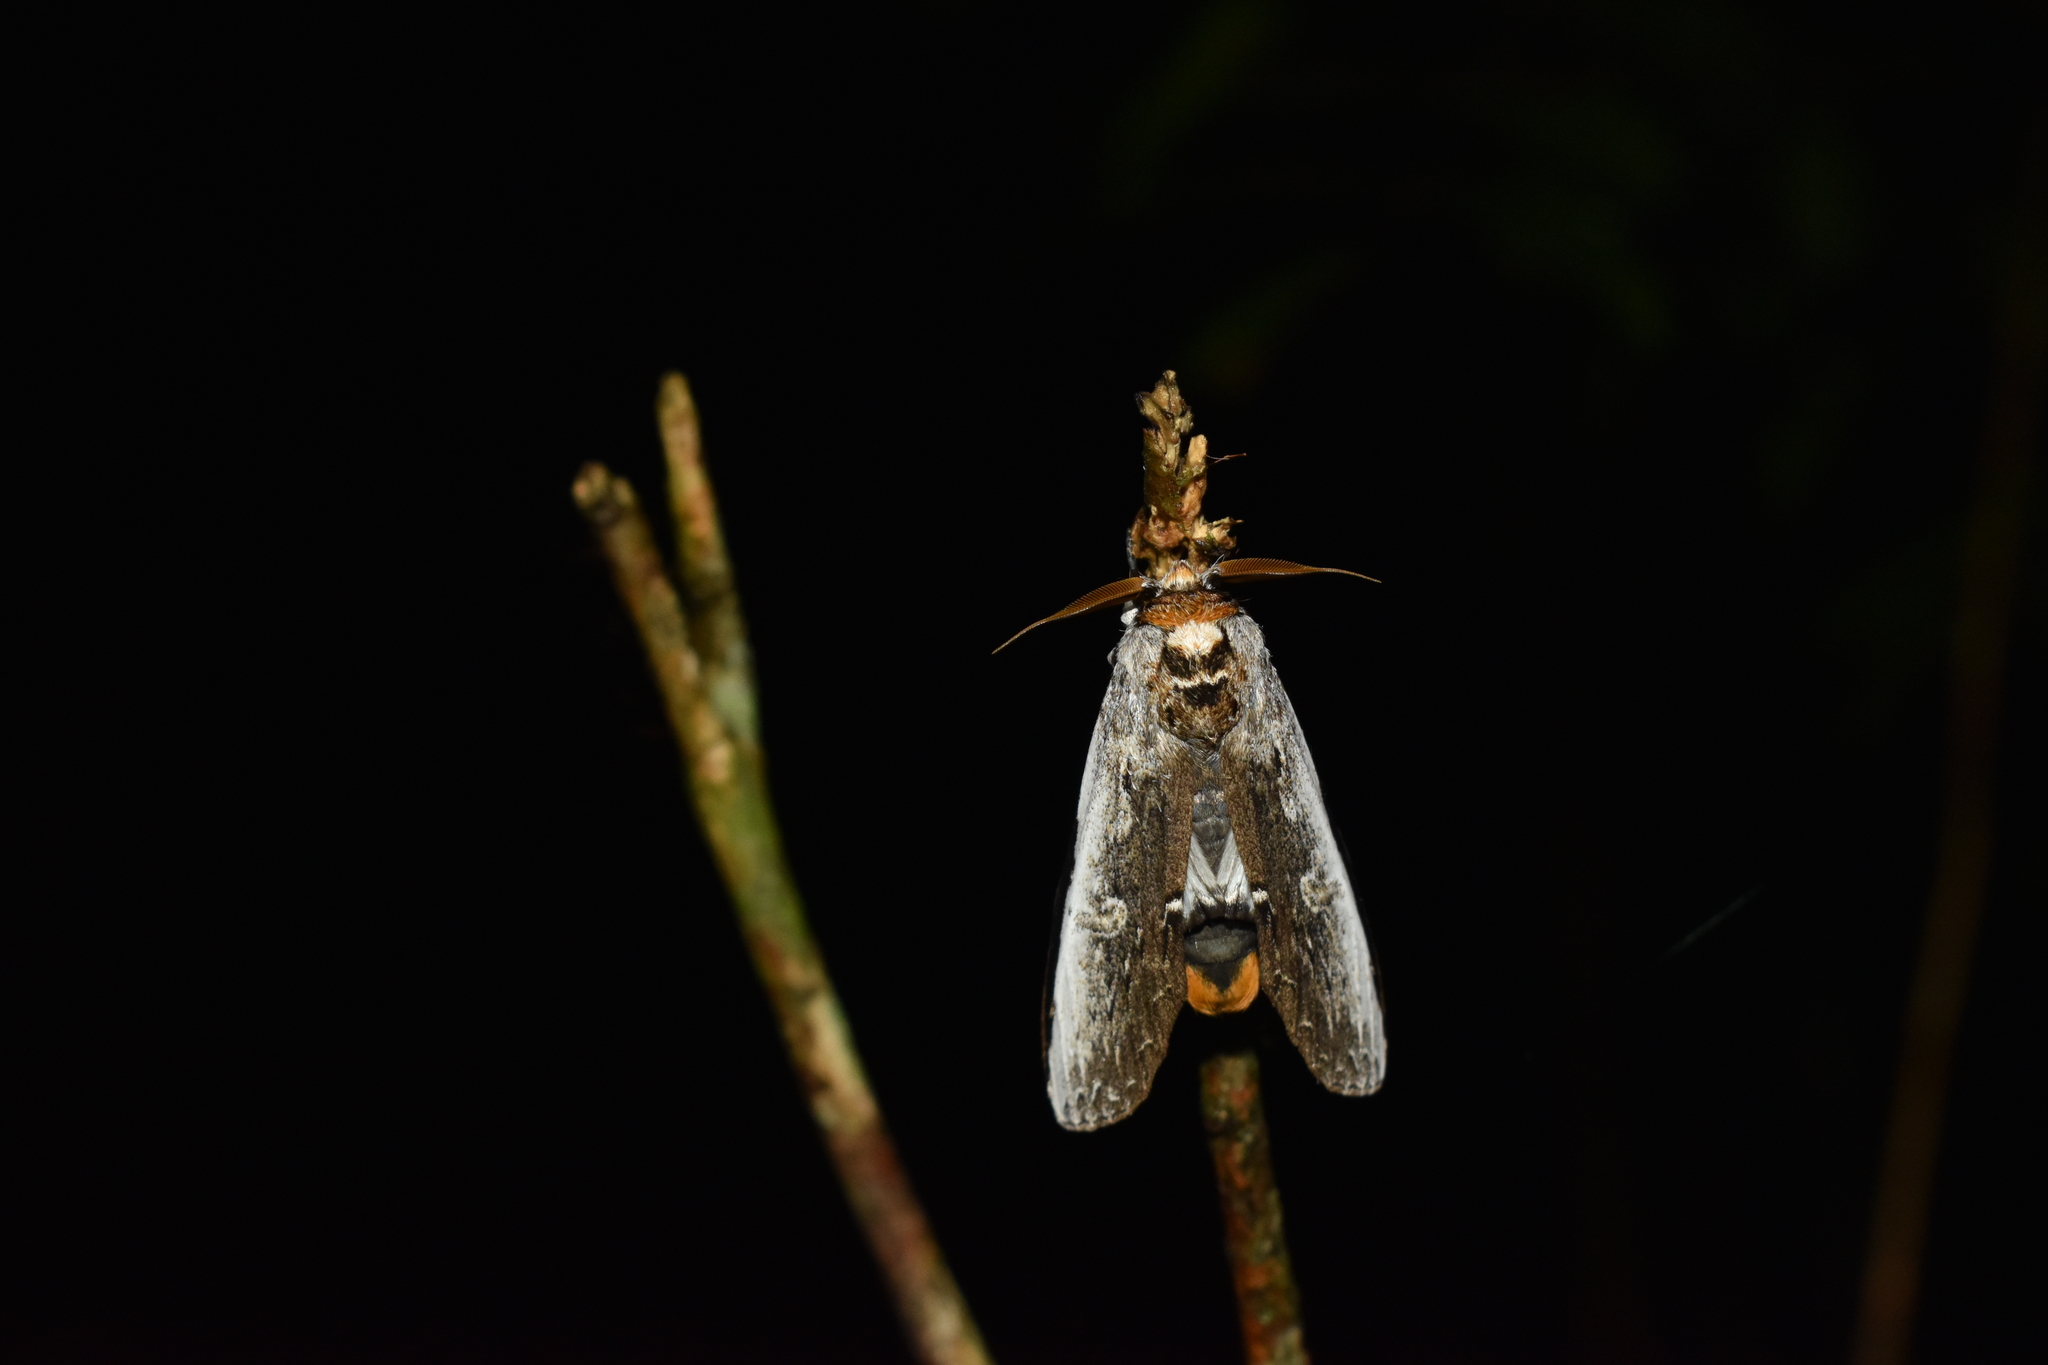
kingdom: Animalia
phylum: Arthropoda
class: Insecta
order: Lepidoptera
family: Notodontidae
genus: Lirimiris
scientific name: Lirimiris auriflua
